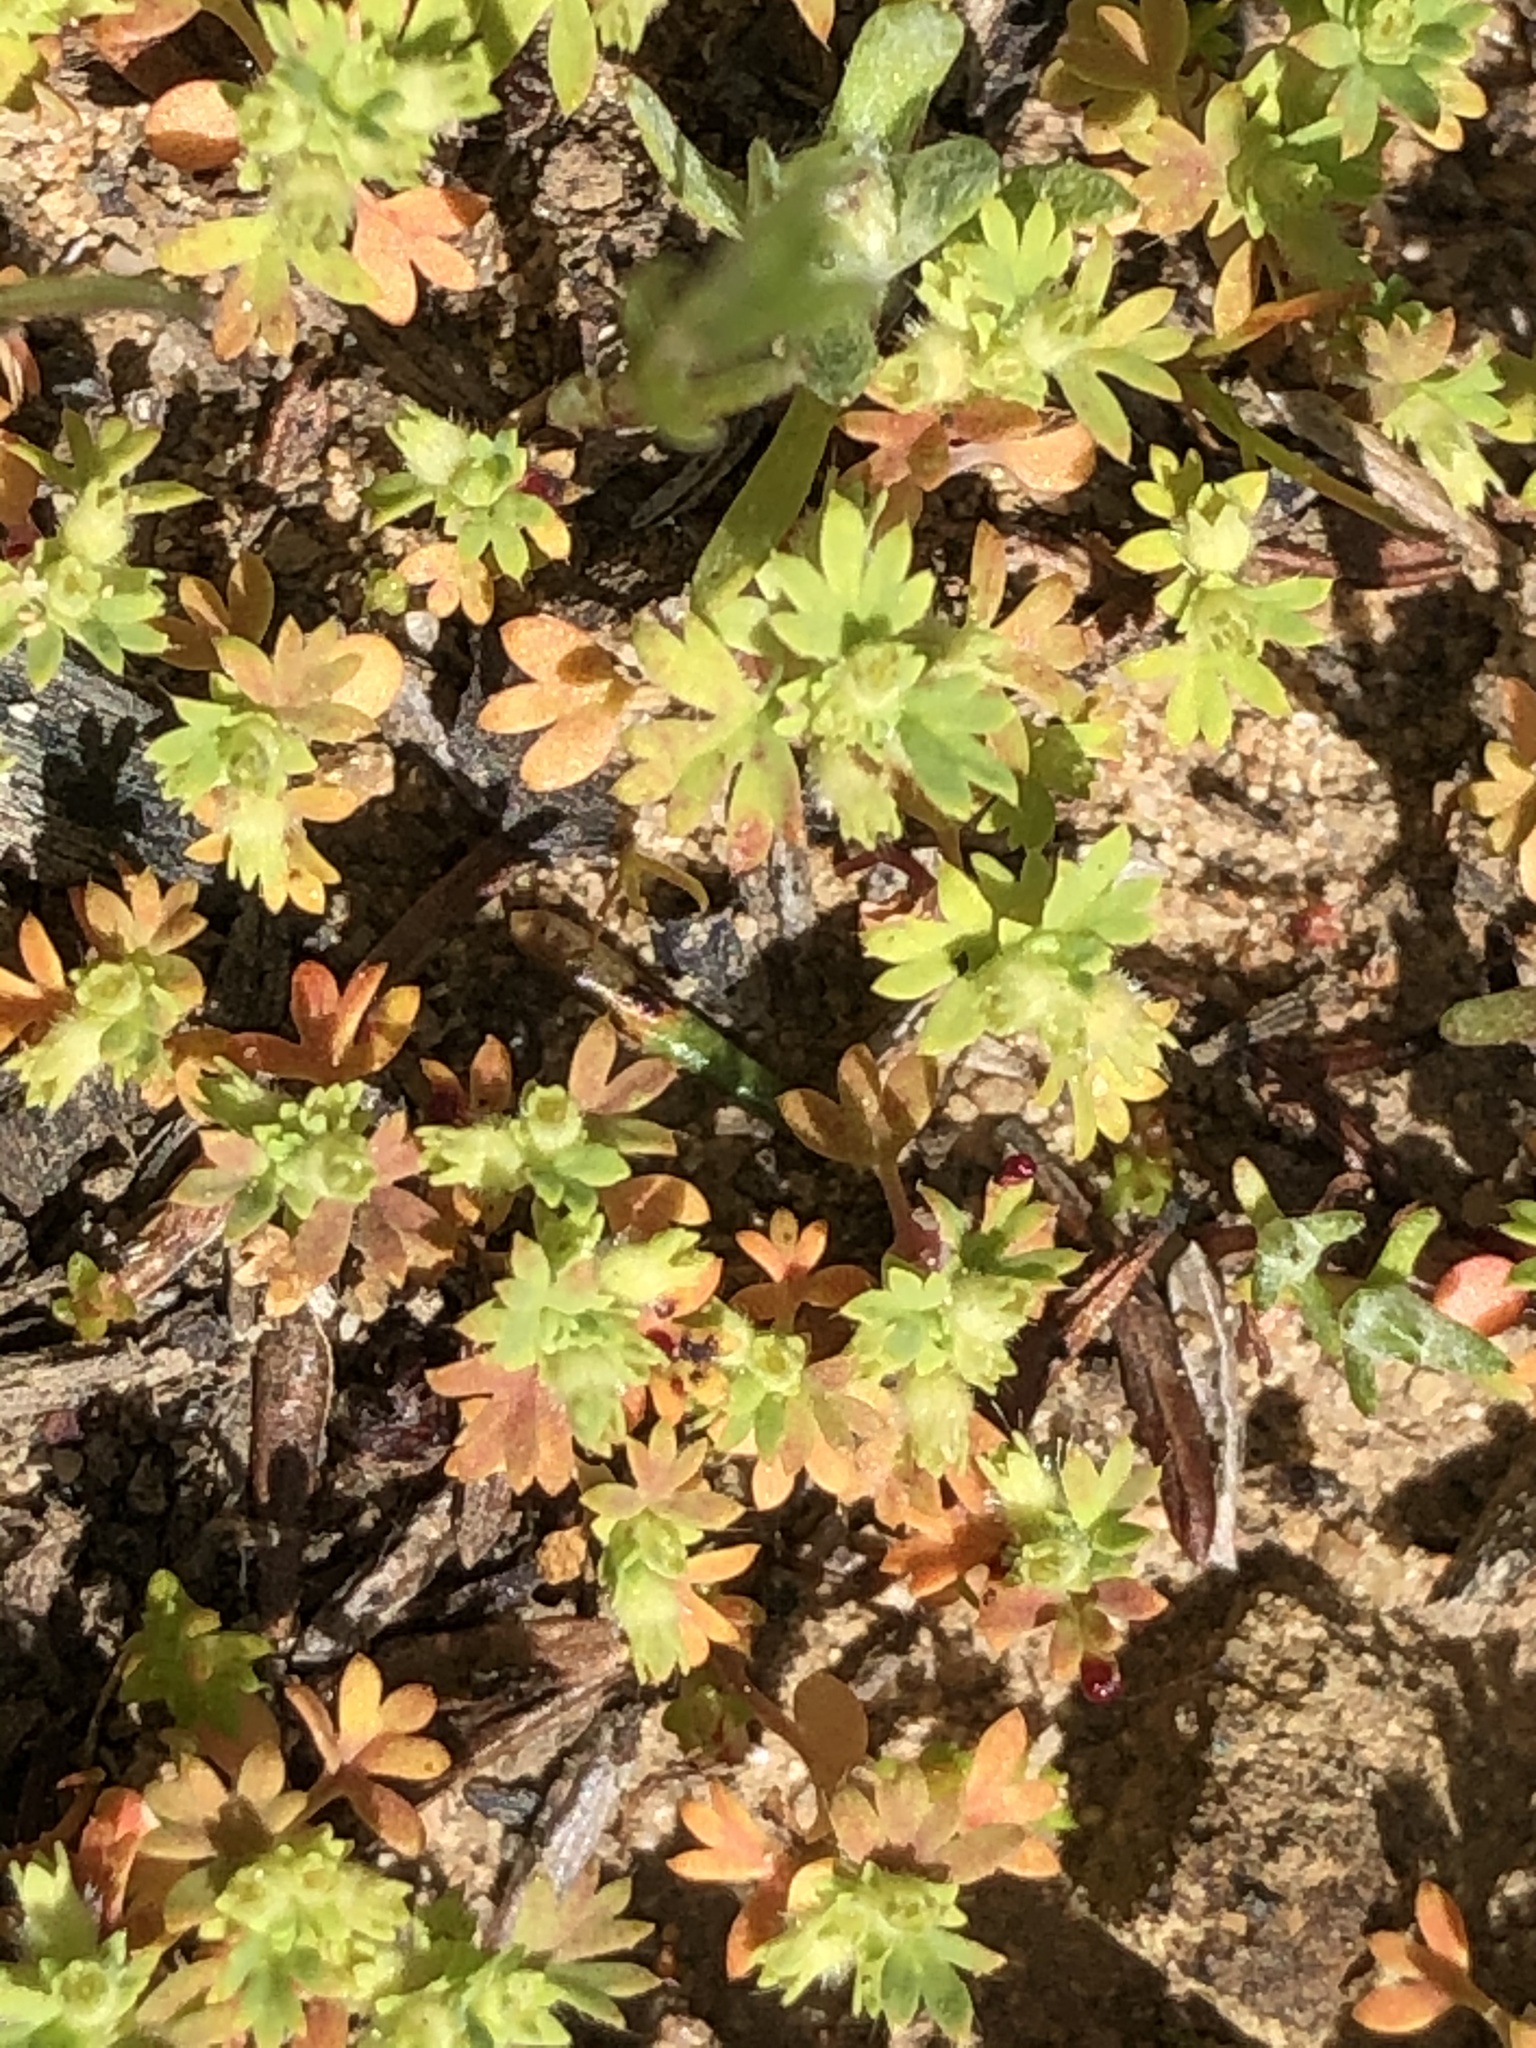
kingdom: Plantae
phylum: Tracheophyta
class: Magnoliopsida
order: Rosales
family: Rosaceae
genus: Aphanes
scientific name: Aphanes arvensis
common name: Parsley-piert
